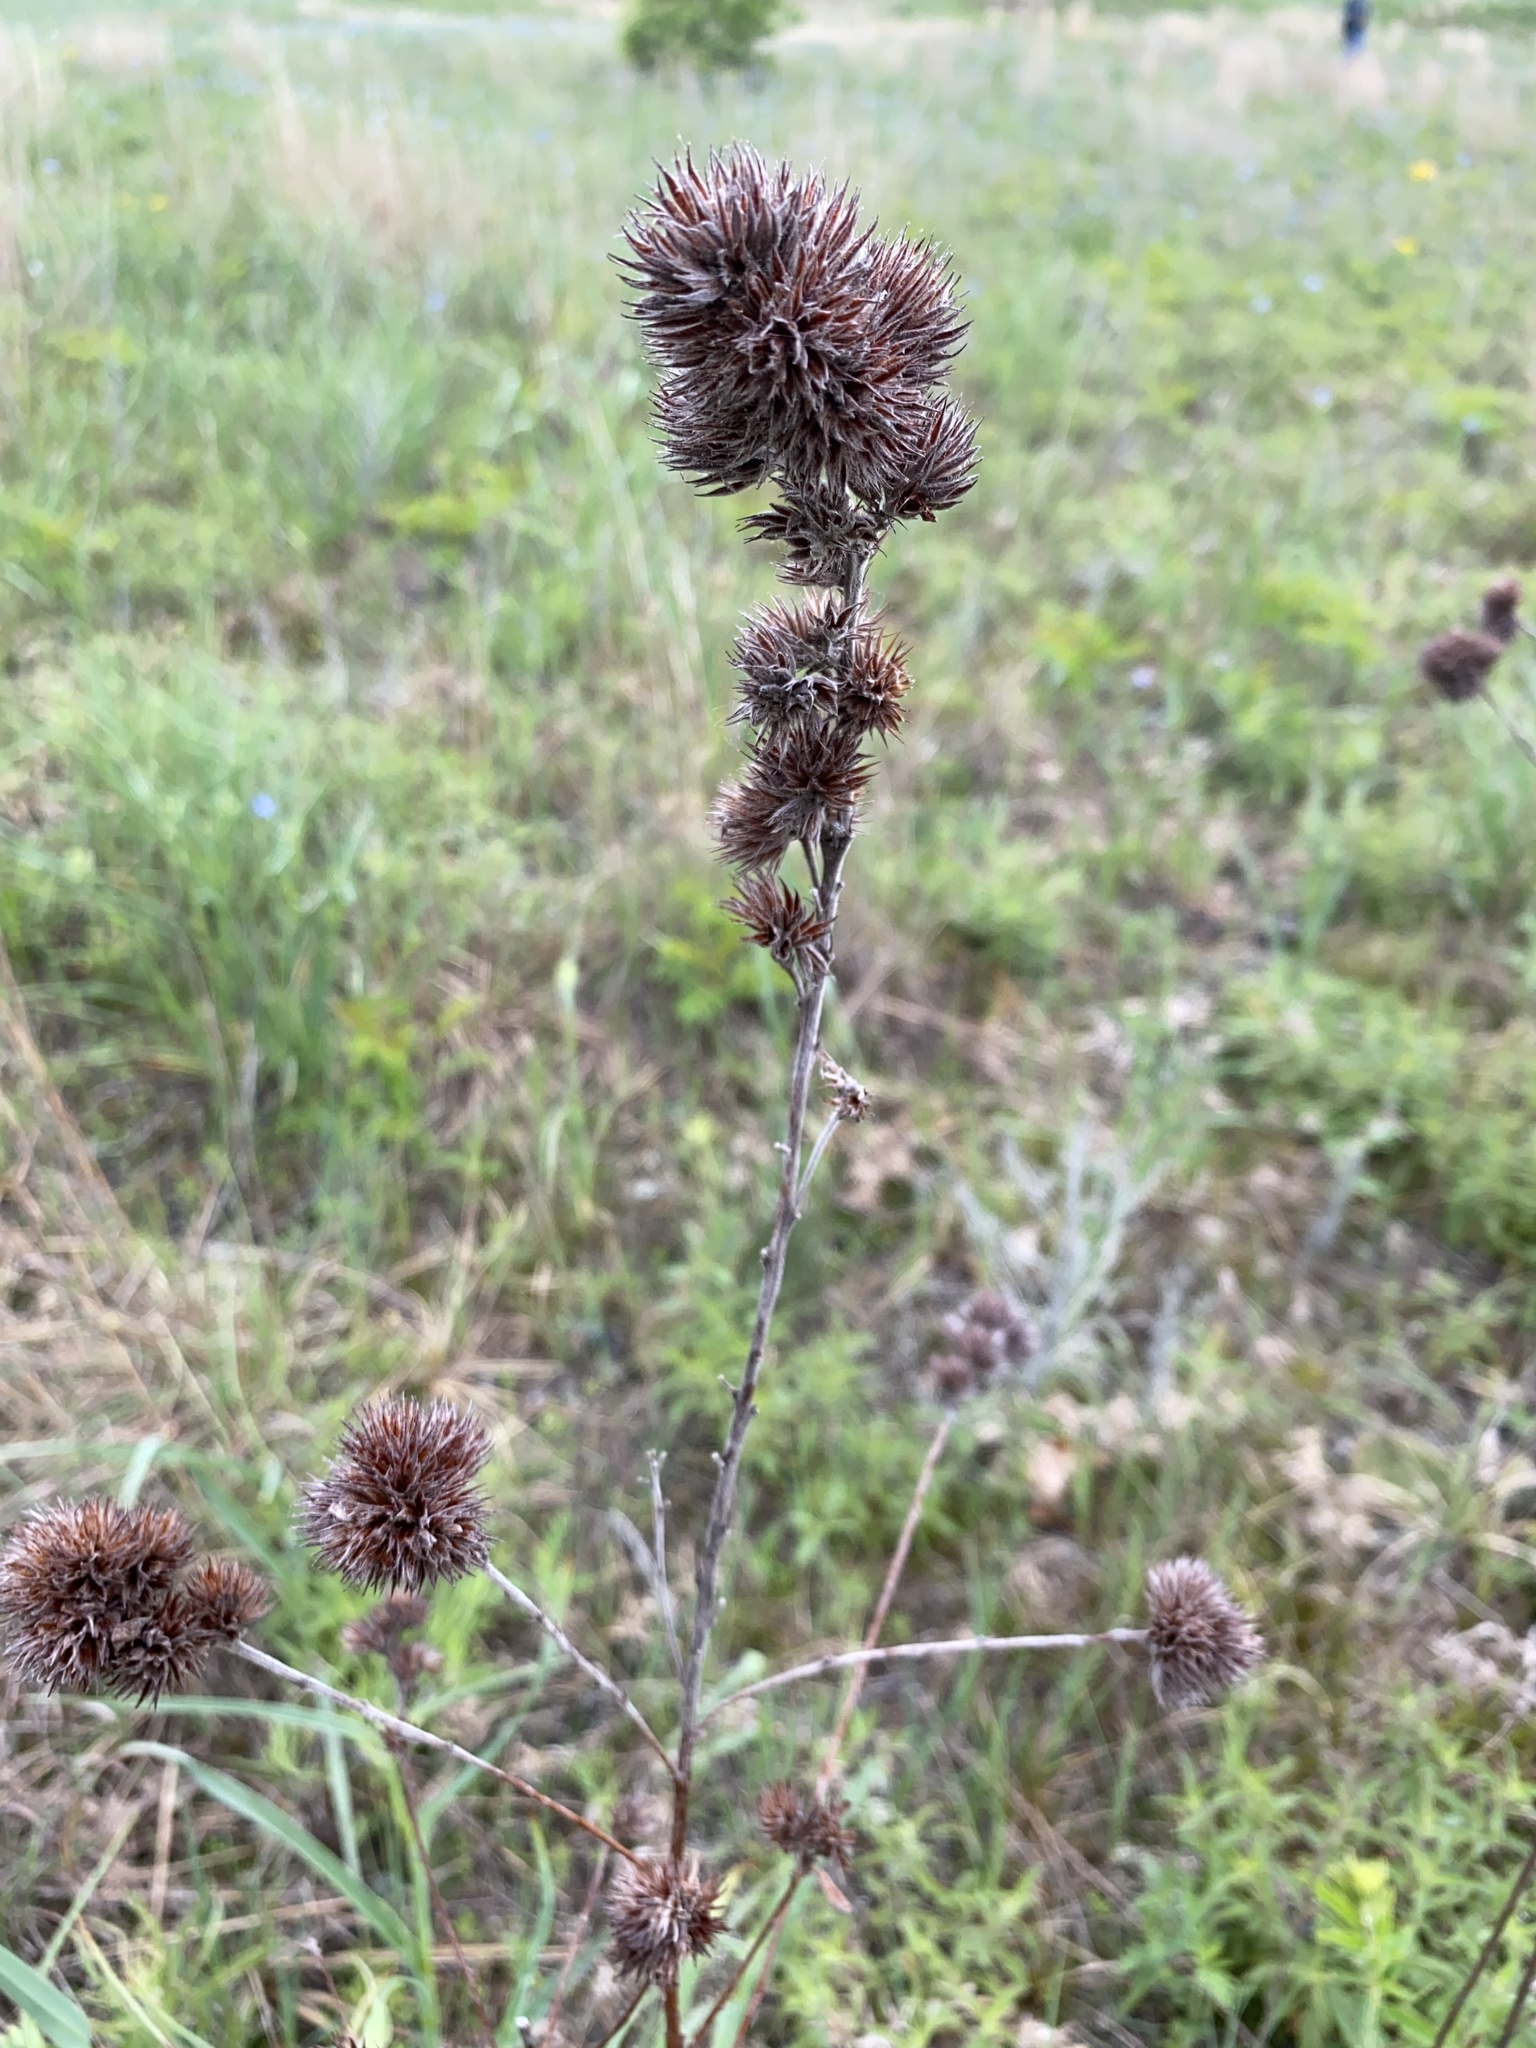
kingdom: Plantae
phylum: Tracheophyta
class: Magnoliopsida
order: Fabales
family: Fabaceae
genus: Lespedeza
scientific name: Lespedeza capitata
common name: Dusty clover
